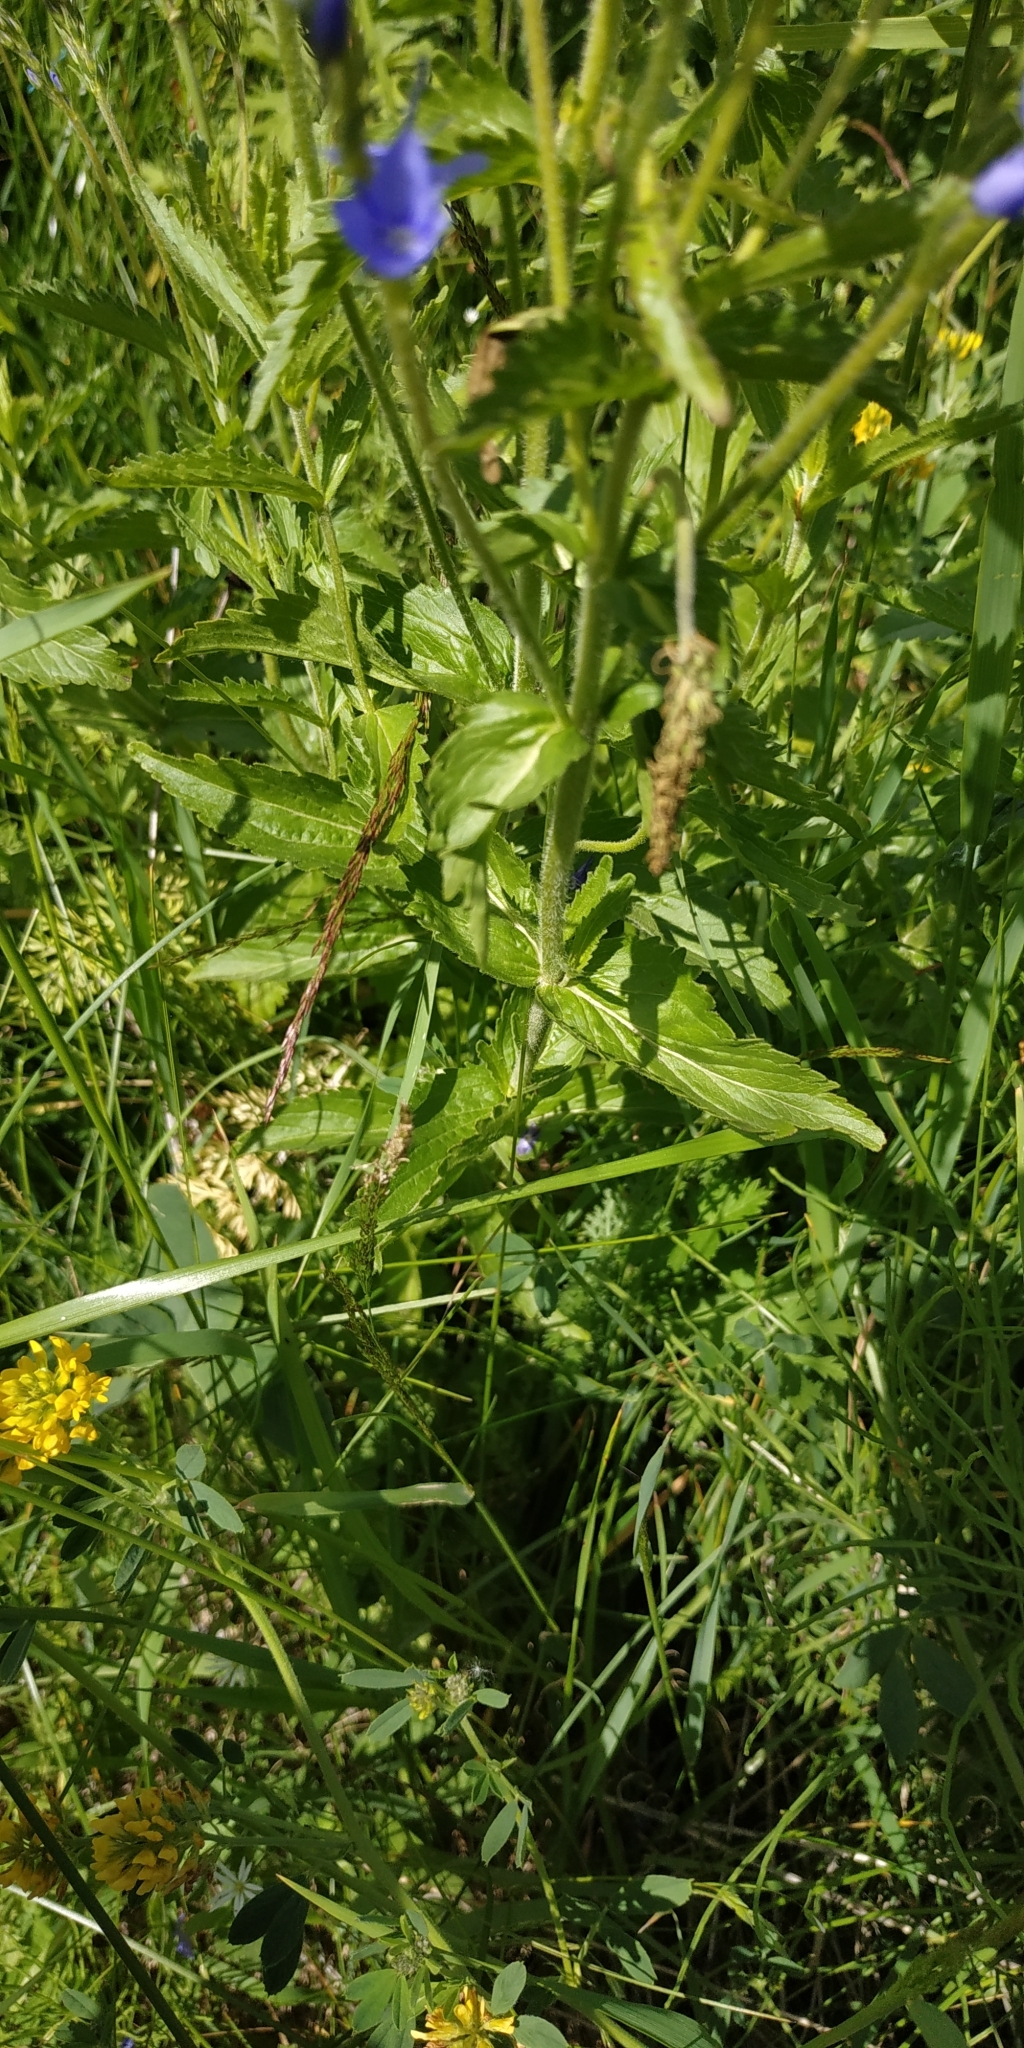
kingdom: Plantae
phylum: Tracheophyta
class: Magnoliopsida
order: Lamiales
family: Plantaginaceae
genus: Veronica
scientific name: Veronica teucrium
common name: Large speedwell
